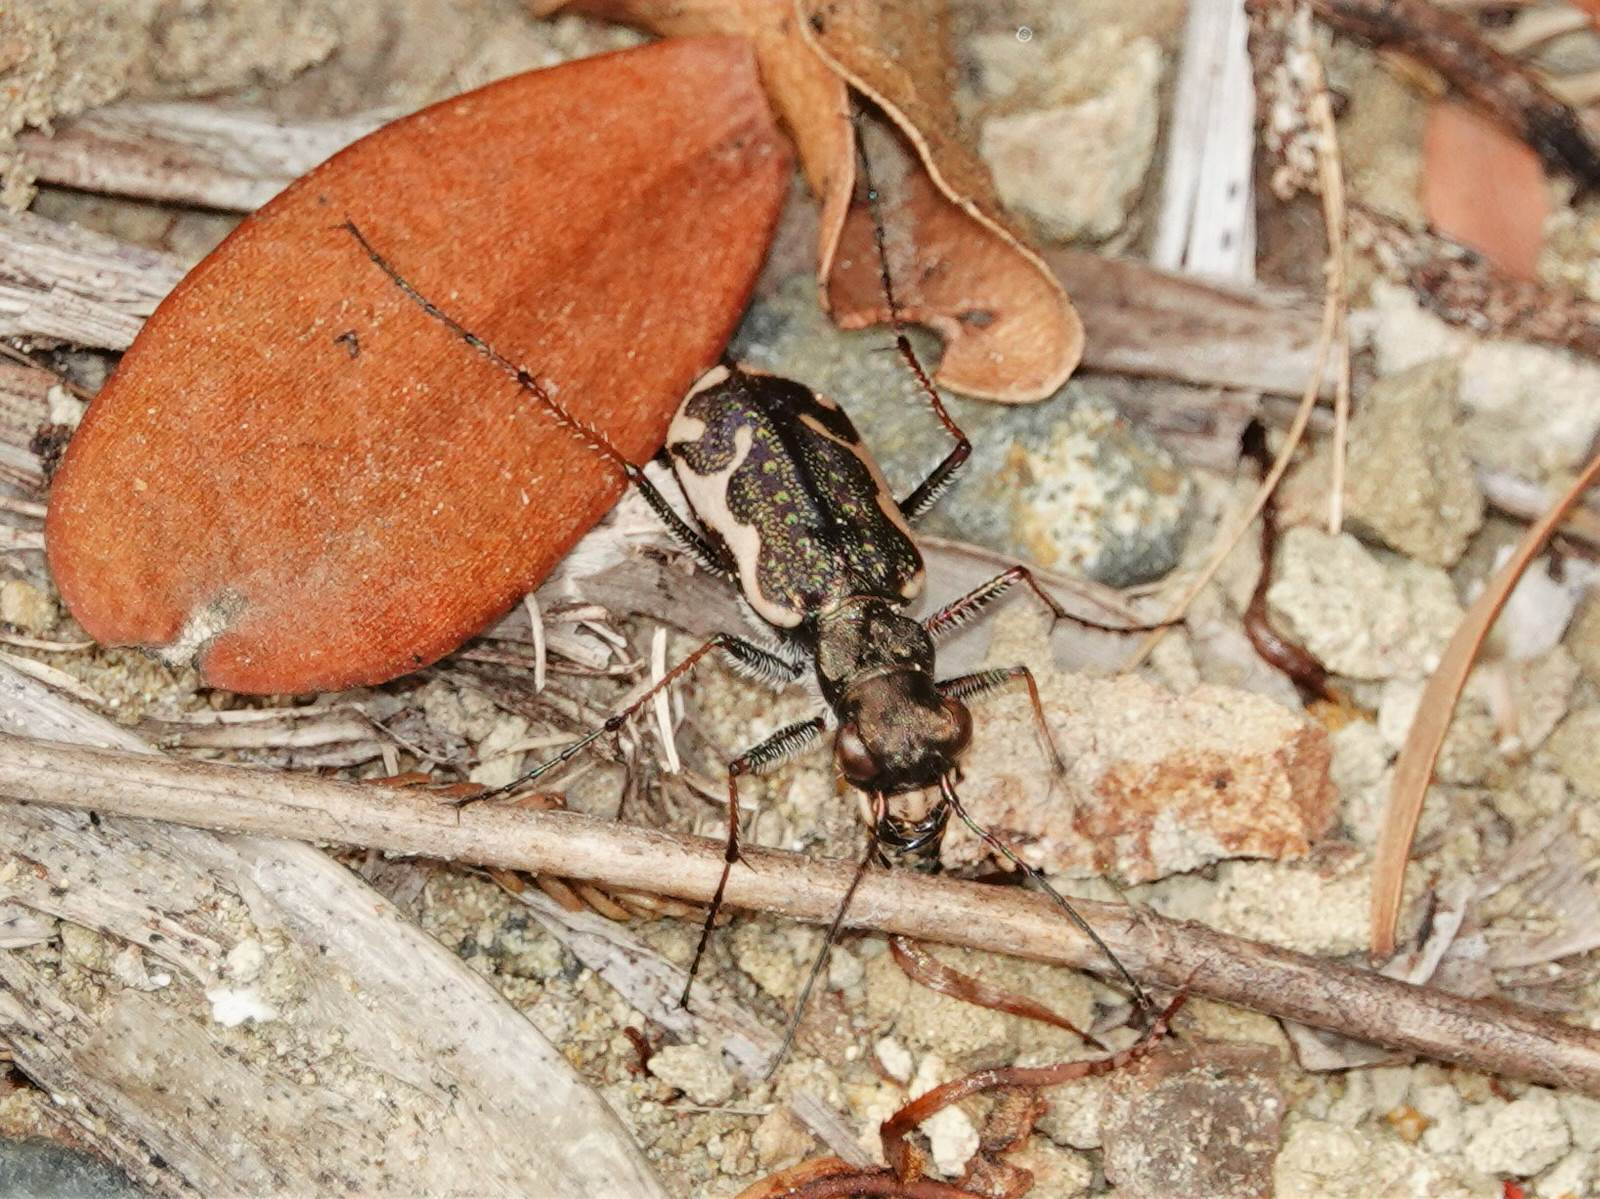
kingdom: Animalia
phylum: Arthropoda
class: Insecta
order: Coleoptera
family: Carabidae
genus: Neocicindela
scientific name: Neocicindela tuberculata
